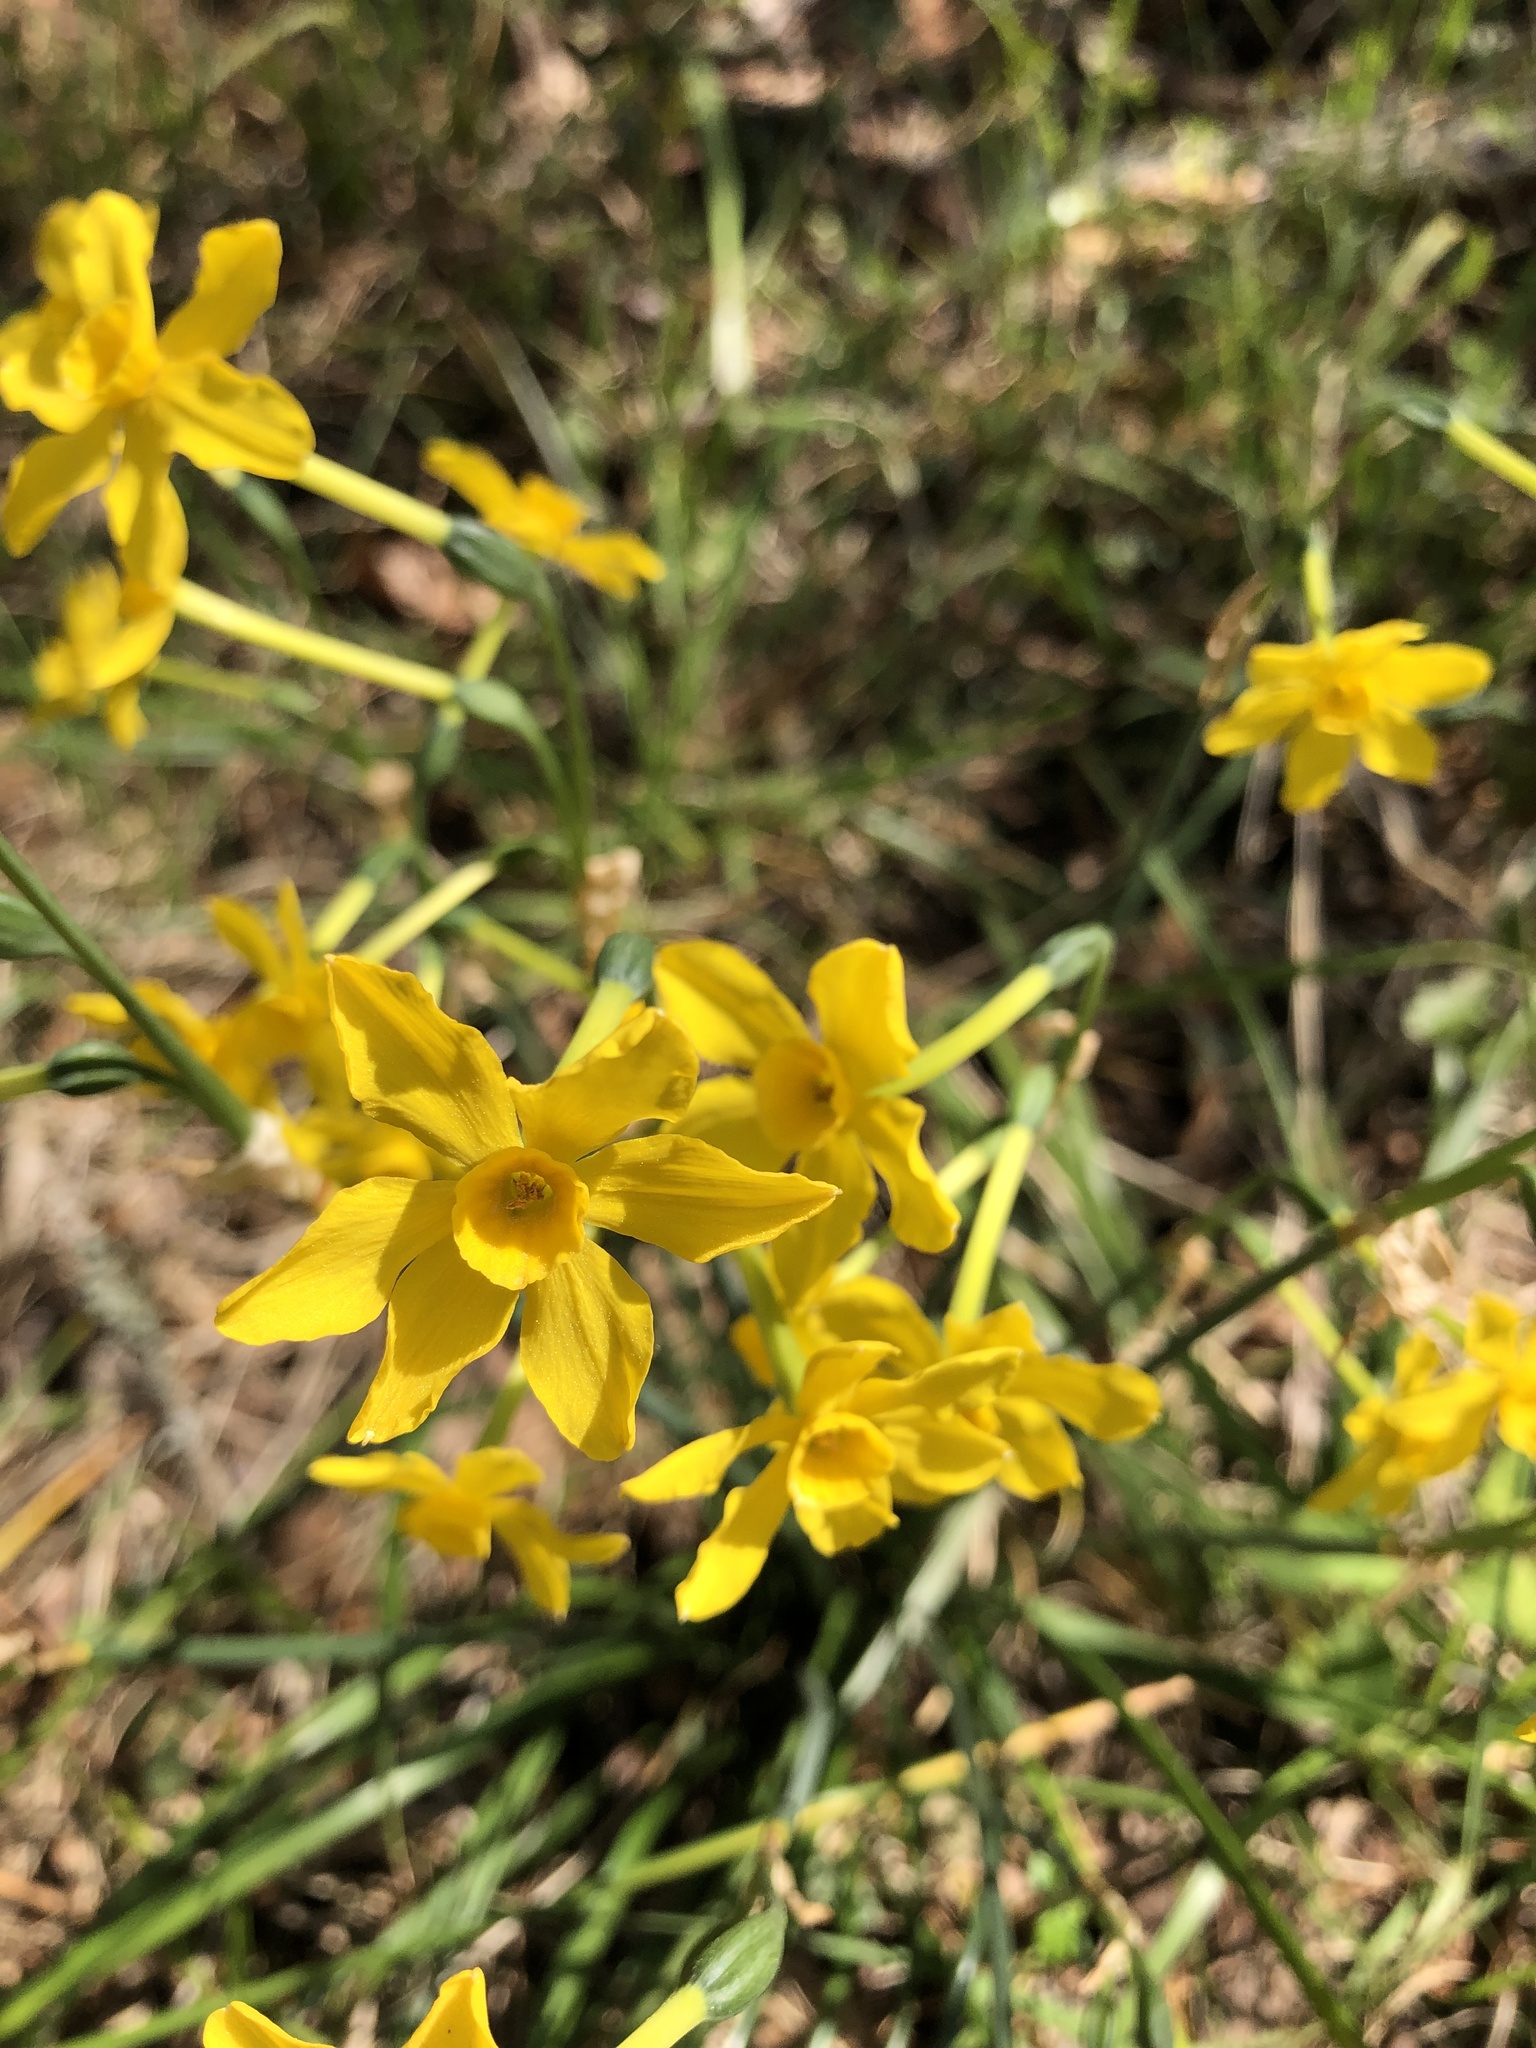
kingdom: Plantae
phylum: Tracheophyta
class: Liliopsida
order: Asparagales
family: Amaryllidaceae
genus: Narcissus
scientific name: Narcissus jonquilla
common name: Jonquil
